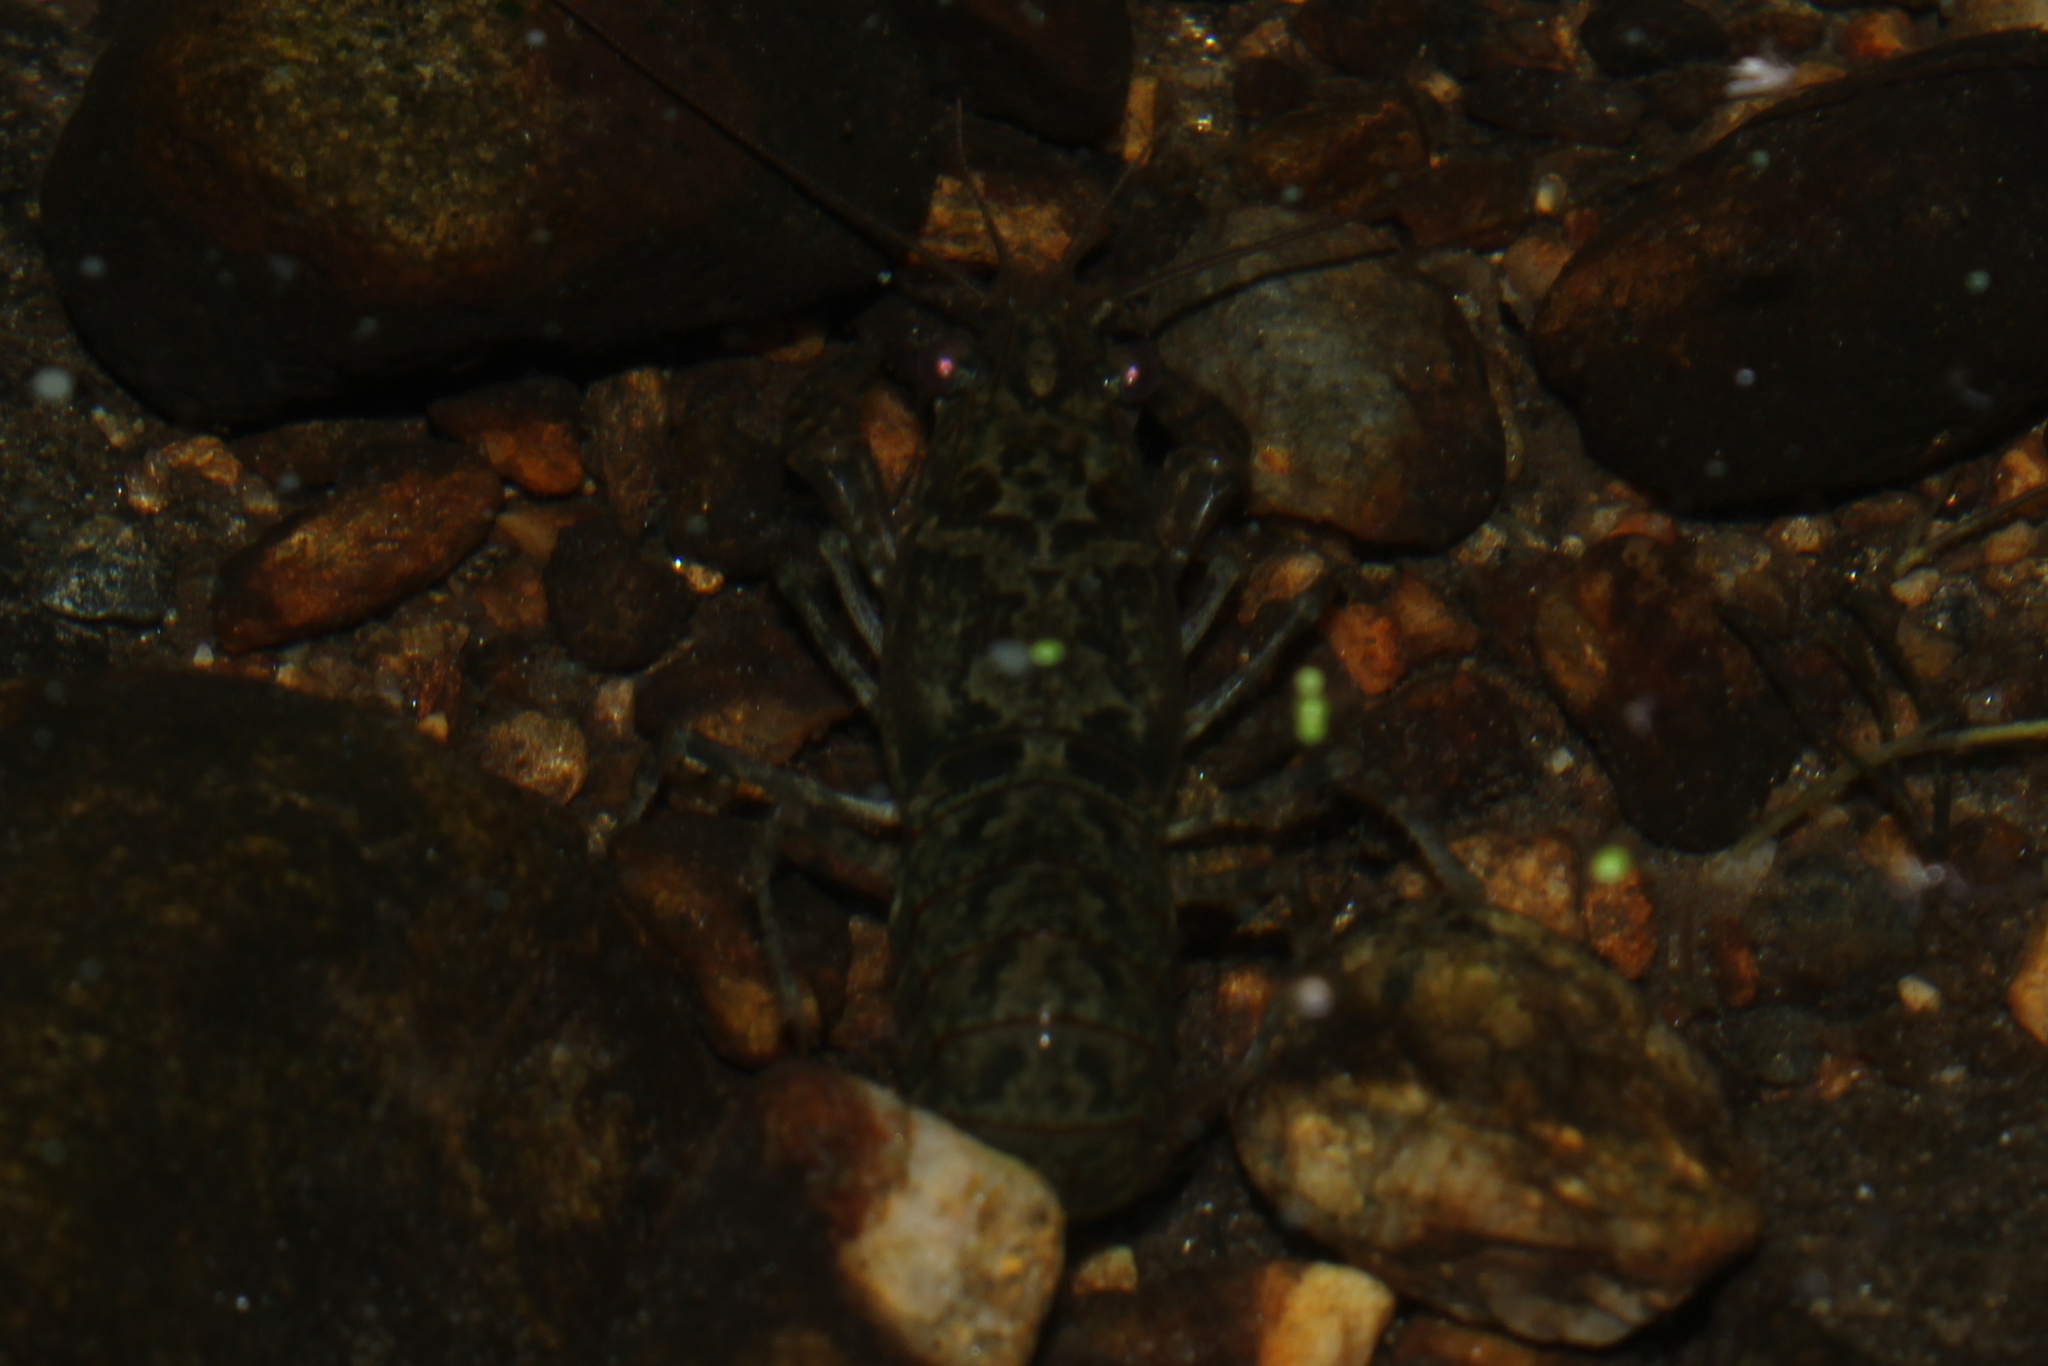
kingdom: Animalia
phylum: Arthropoda
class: Malacostraca
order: Decapoda
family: Cambaridae
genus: Faxonius
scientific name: Faxonius virilis
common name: Virile crayfish
